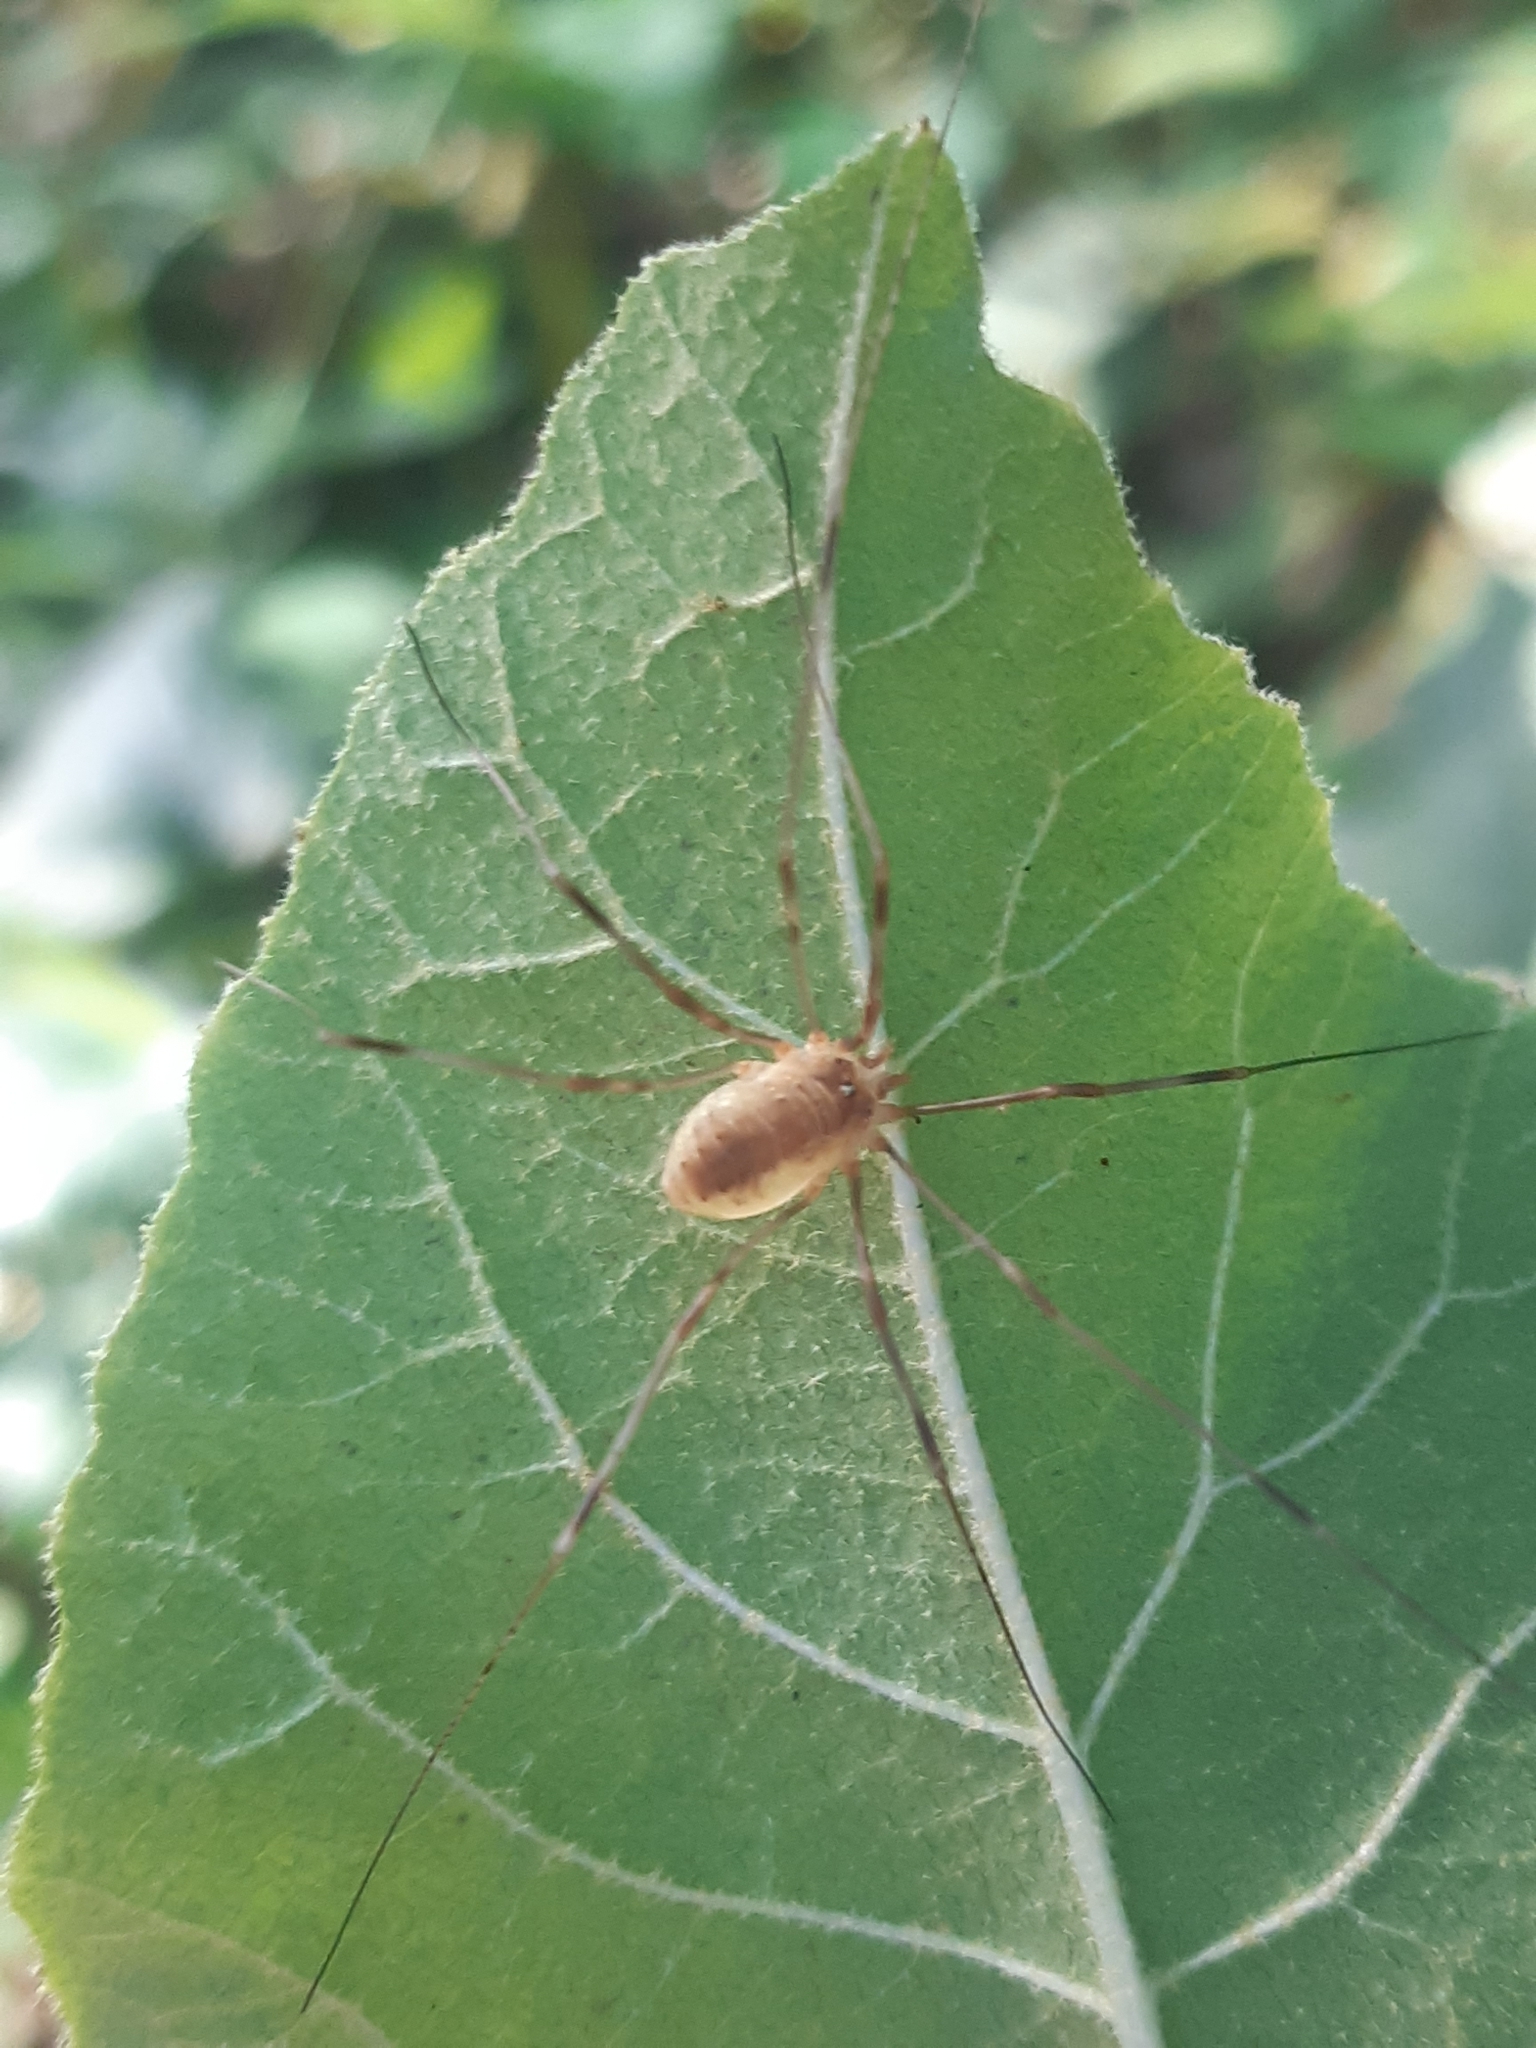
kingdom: Animalia
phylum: Arthropoda
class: Arachnida
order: Opiliones
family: Phalangiidae
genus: Opilio
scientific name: Opilio canestrinii
